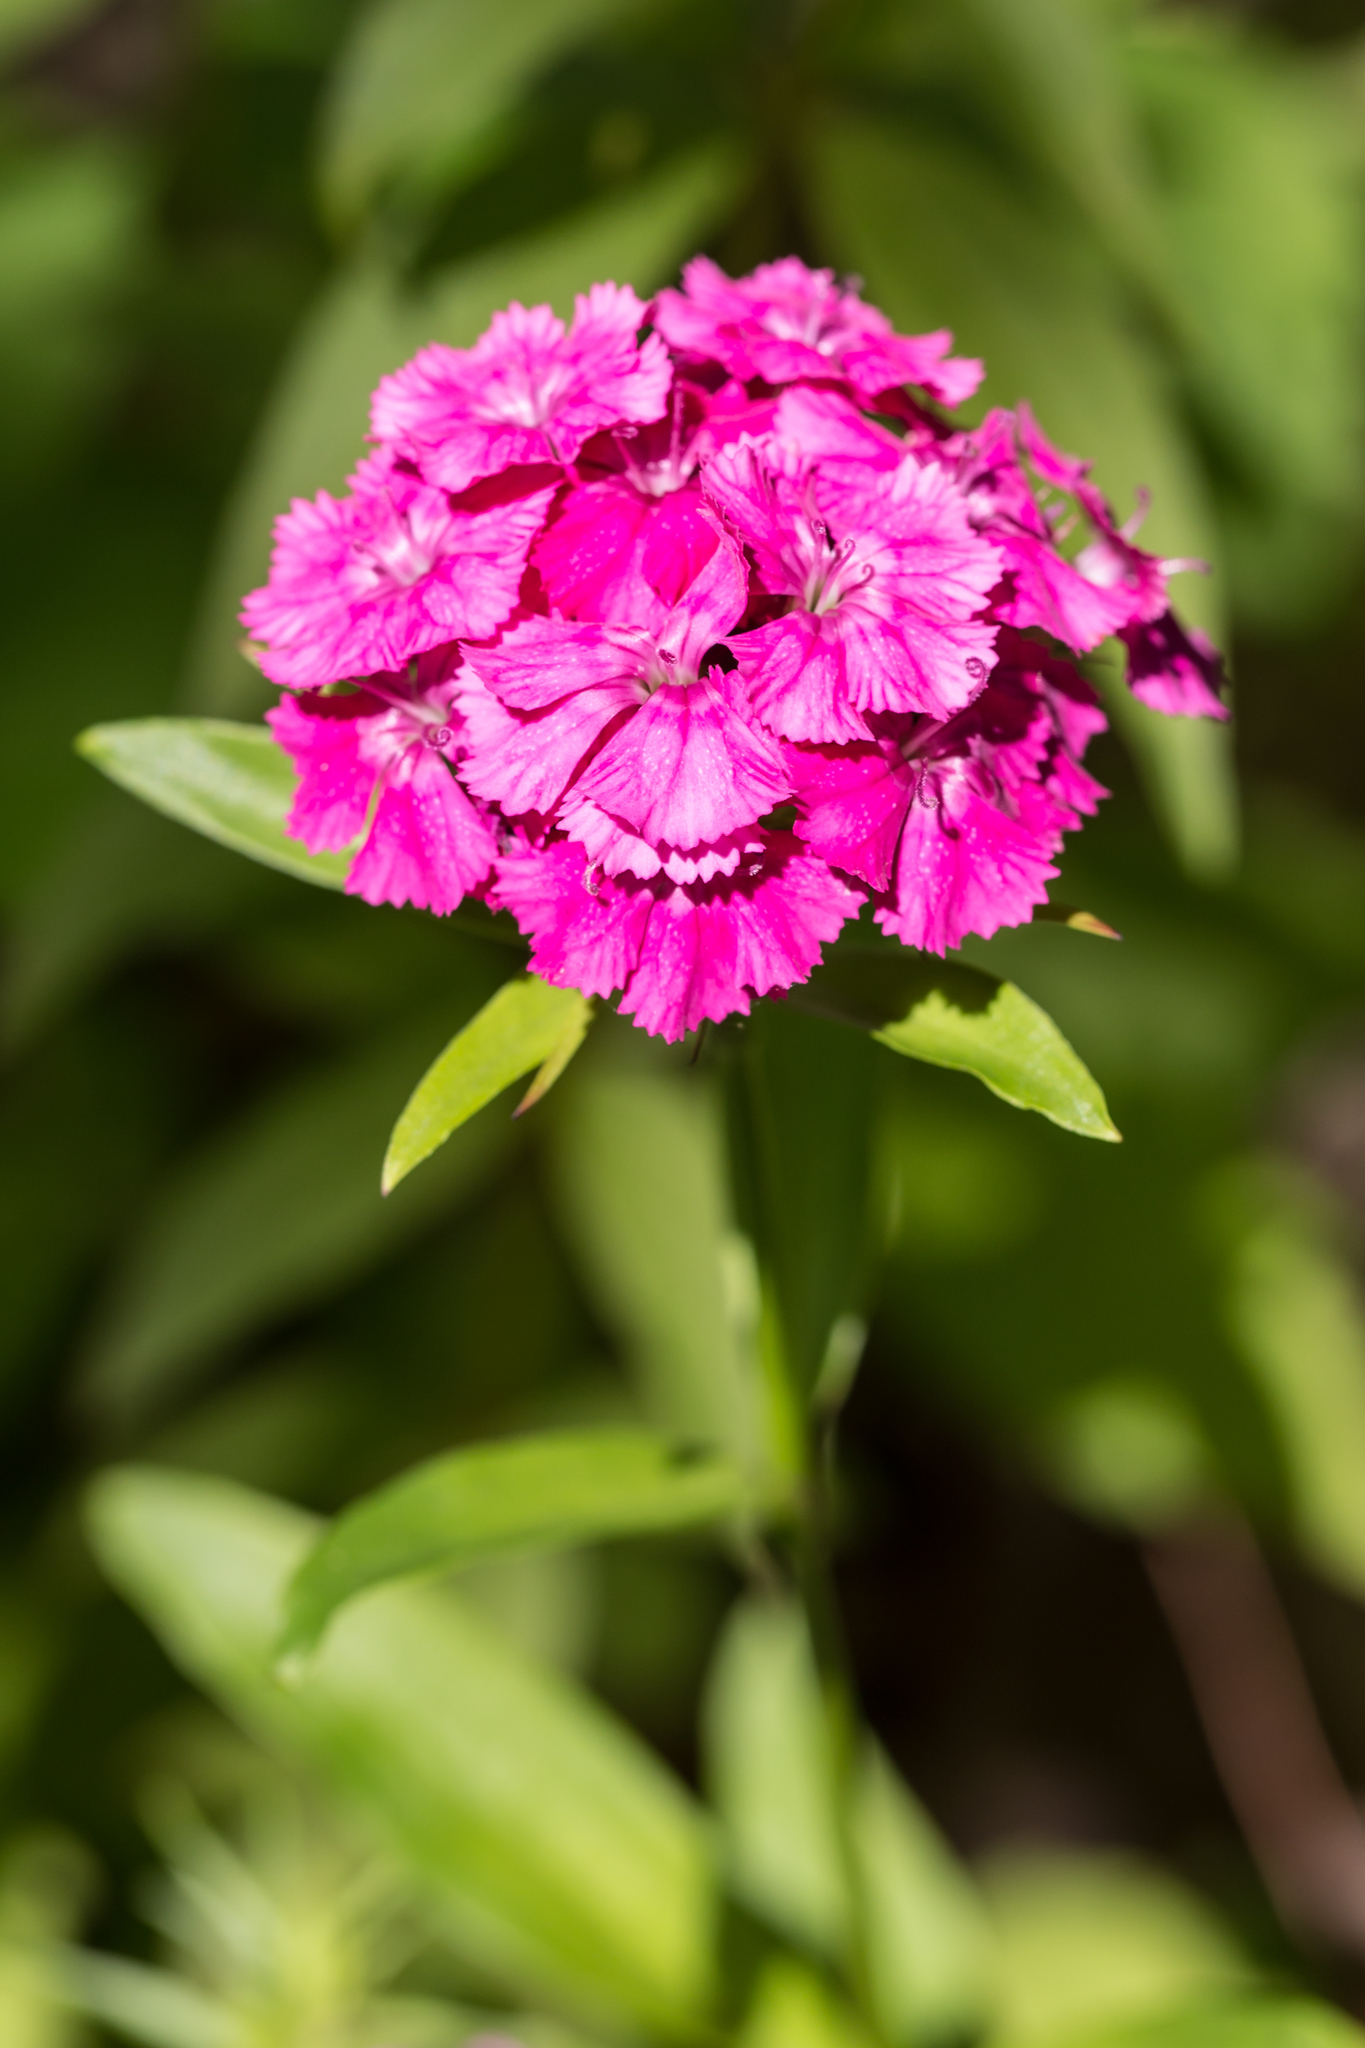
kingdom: Plantae
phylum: Tracheophyta
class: Magnoliopsida
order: Caryophyllales
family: Caryophyllaceae
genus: Dianthus
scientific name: Dianthus barbatus
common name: Sweet-william
